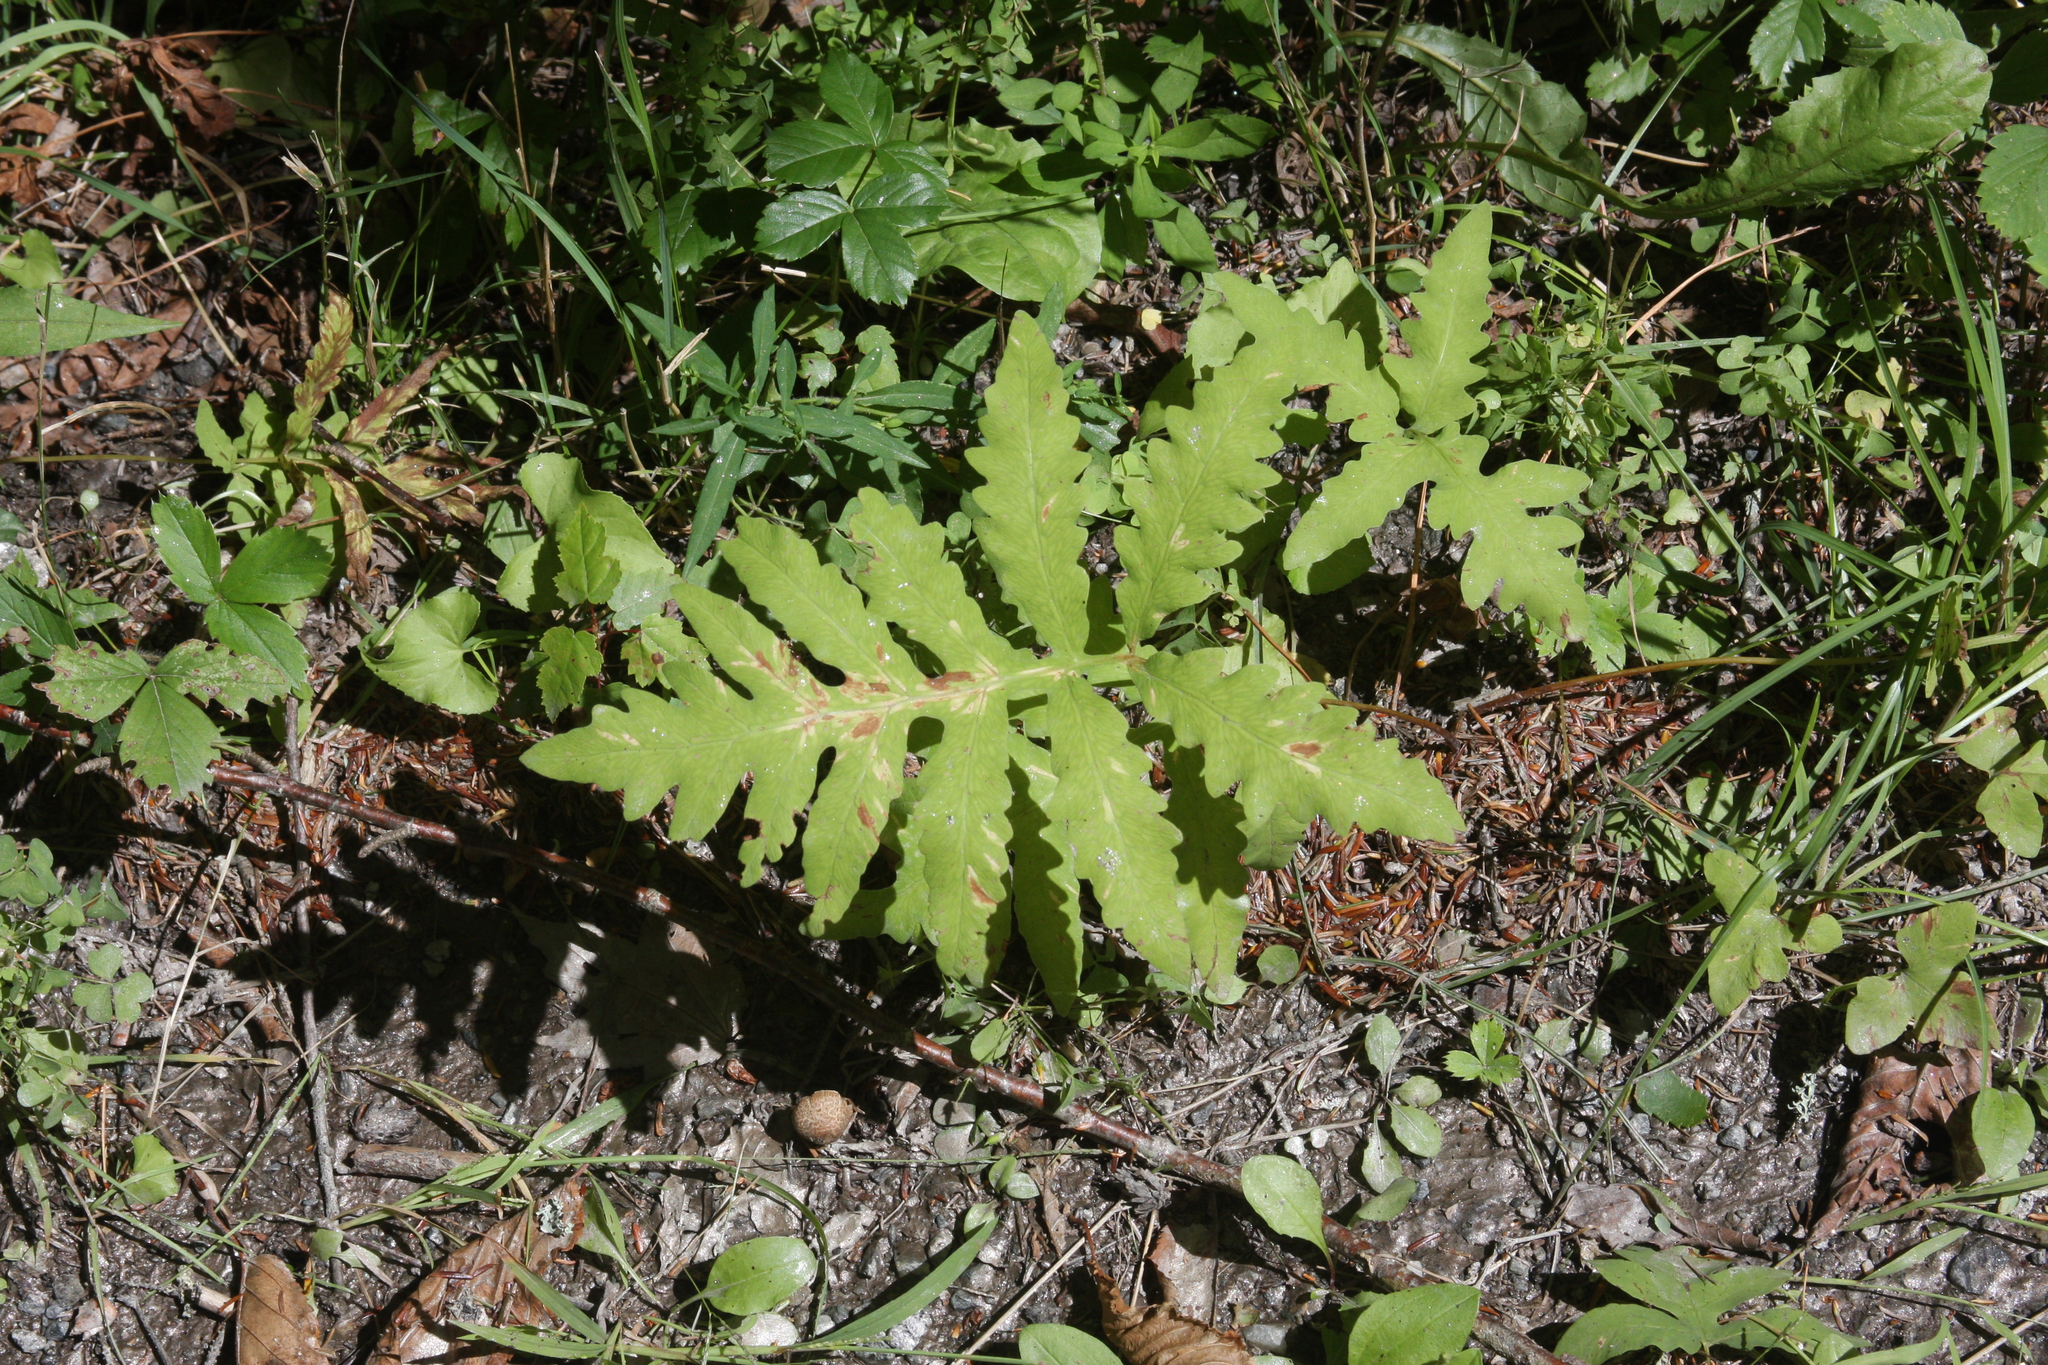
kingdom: Plantae
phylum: Tracheophyta
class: Polypodiopsida
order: Polypodiales
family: Onocleaceae
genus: Onoclea
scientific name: Onoclea sensibilis
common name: Sensitive fern
